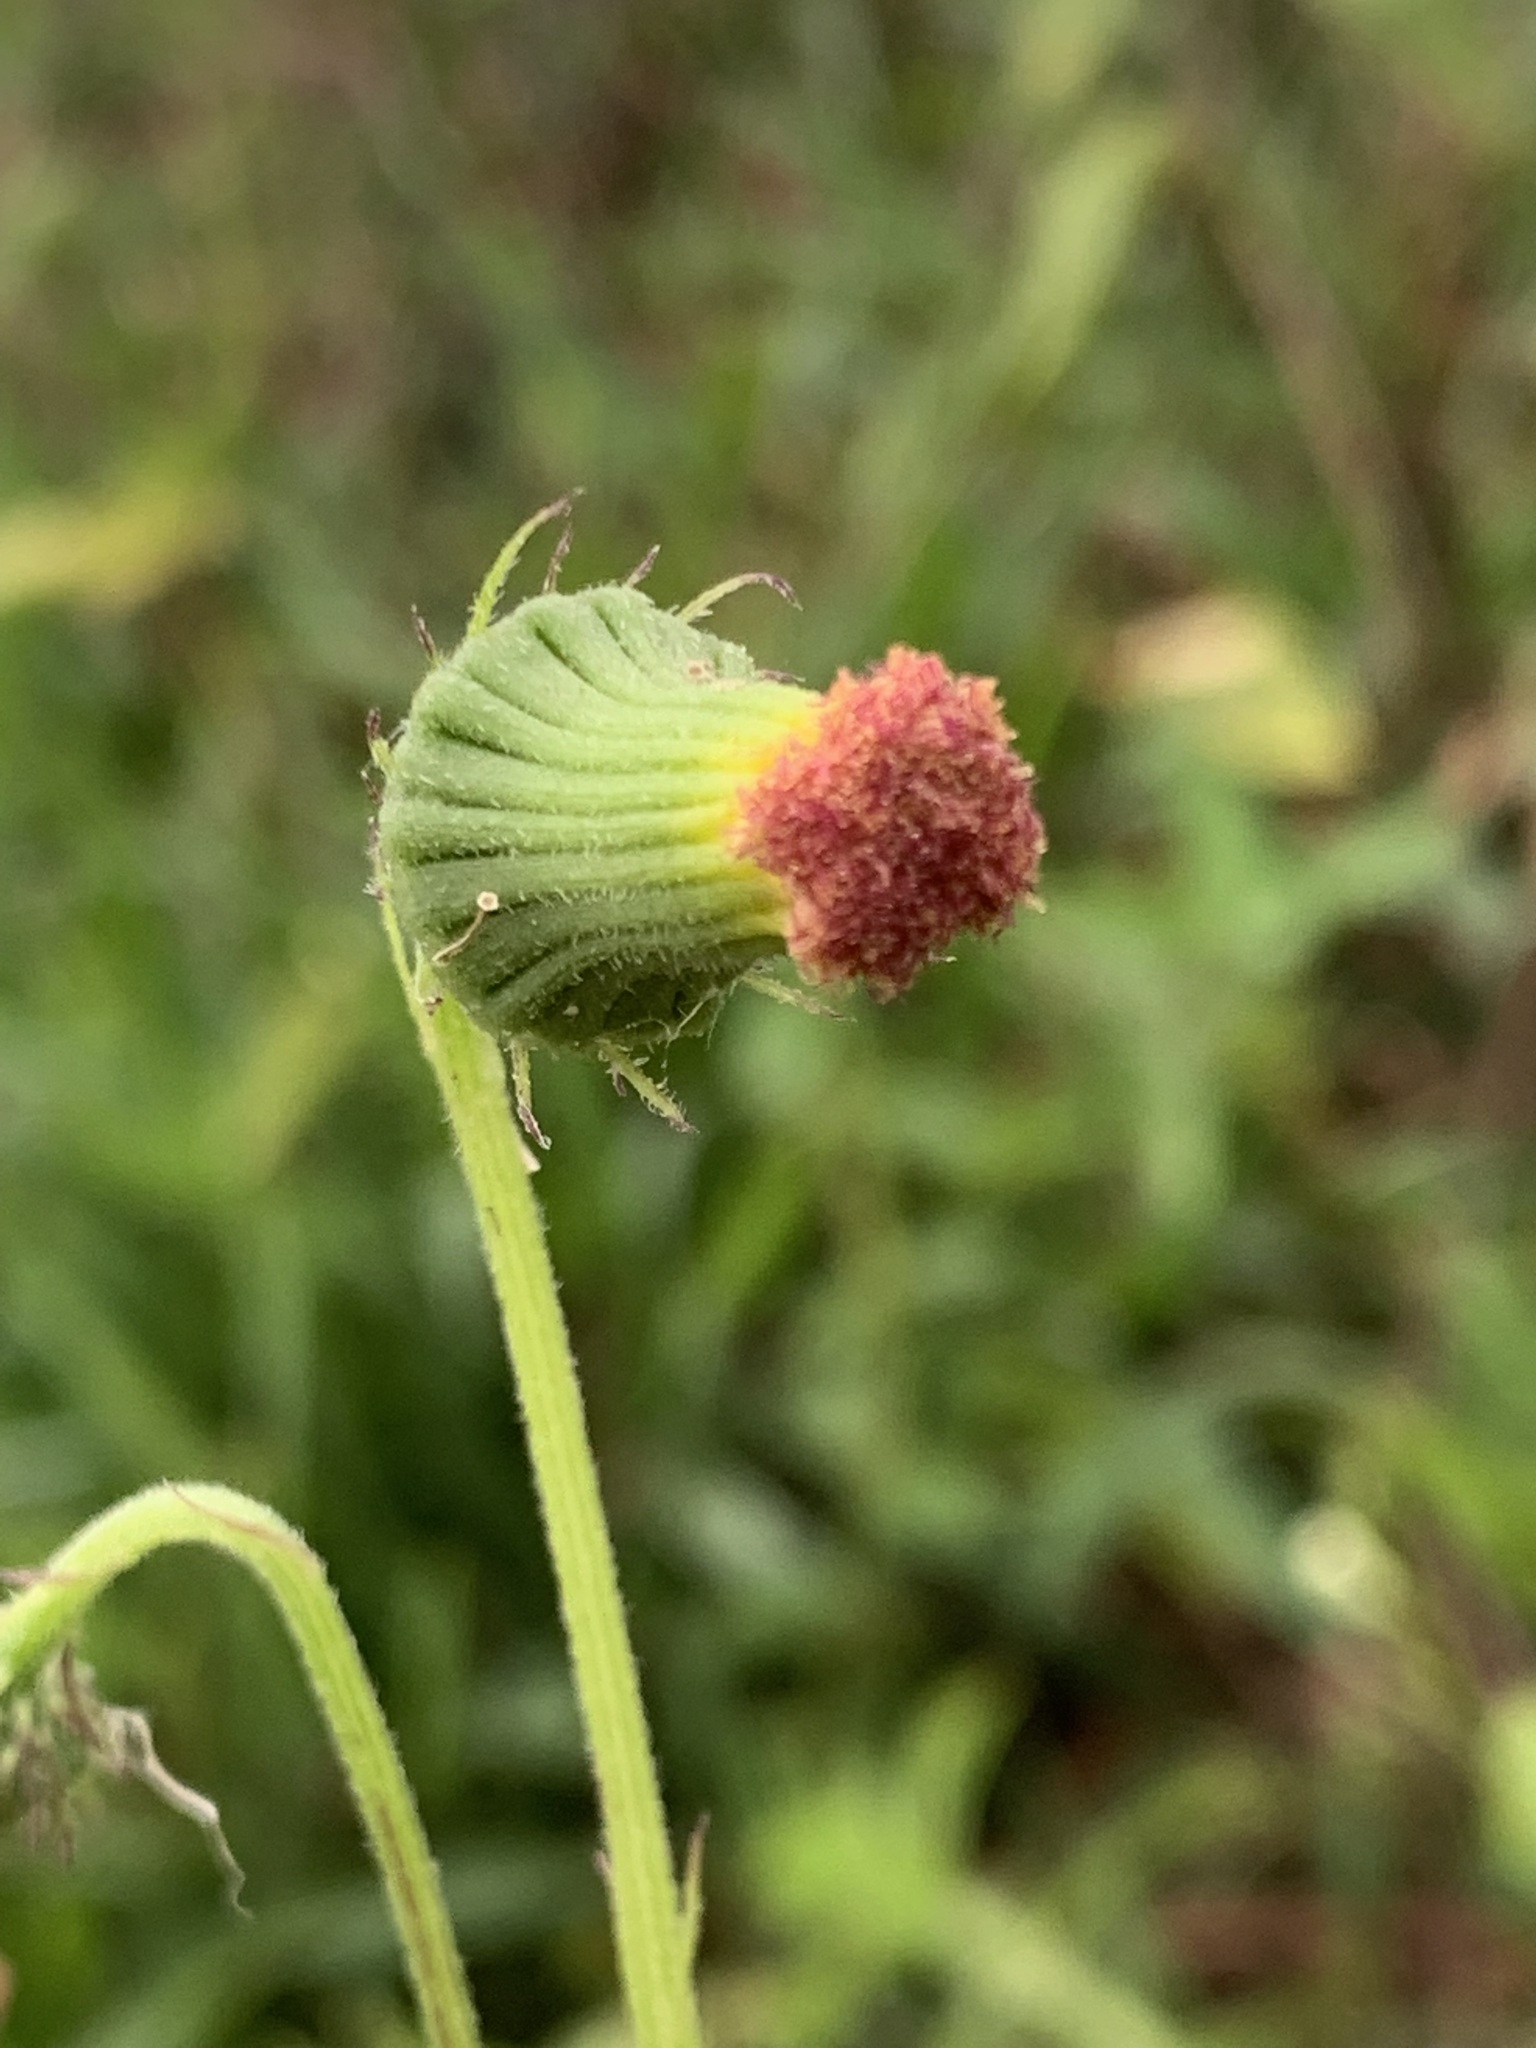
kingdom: Plantae
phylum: Tracheophyta
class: Magnoliopsida
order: Asterales
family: Asteraceae
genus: Crassocephalum
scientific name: Crassocephalum crepidioides
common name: Redflower ragleaf
